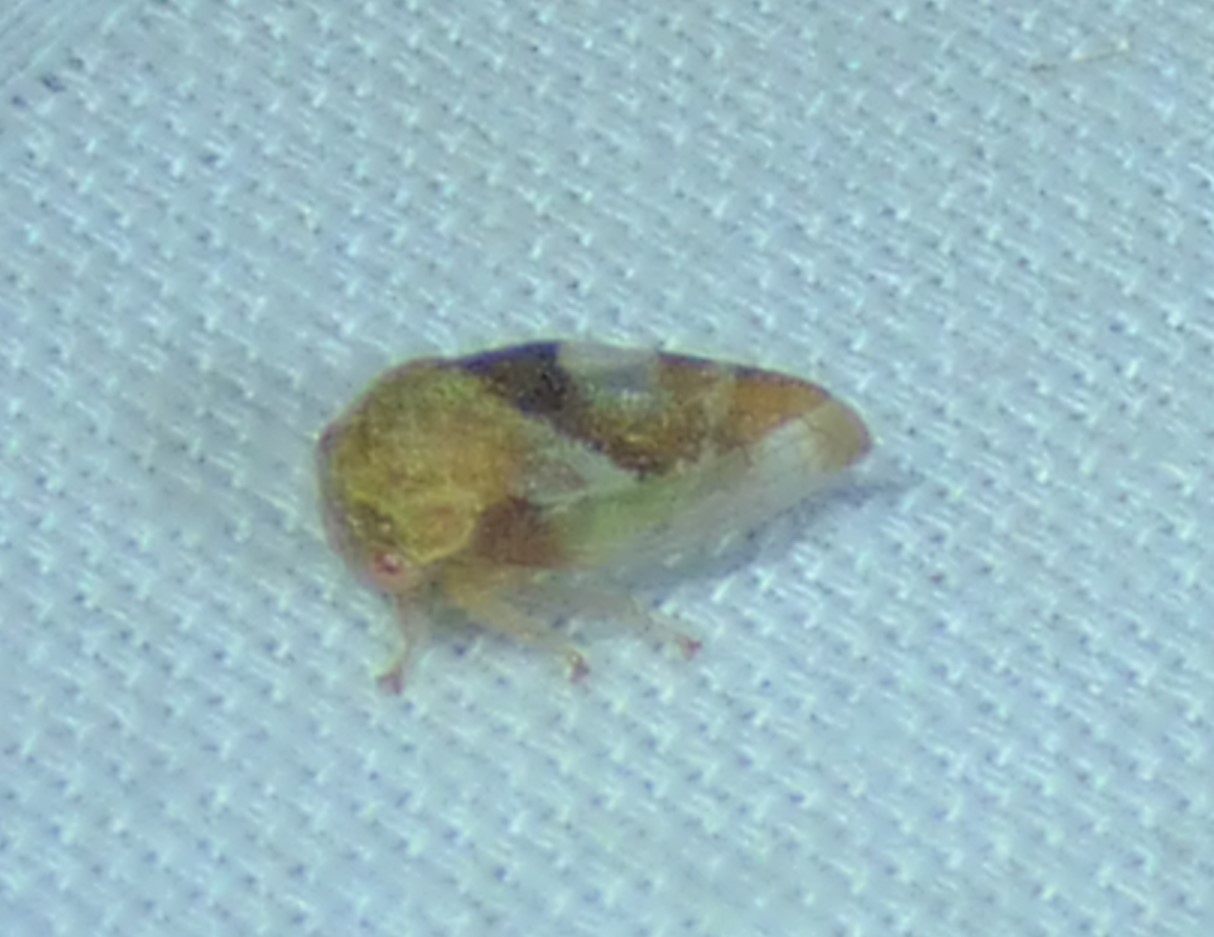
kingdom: Animalia
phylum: Arthropoda
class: Insecta
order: Hemiptera
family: Membracidae
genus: Cyrtolobus
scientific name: Cyrtolobus vau
